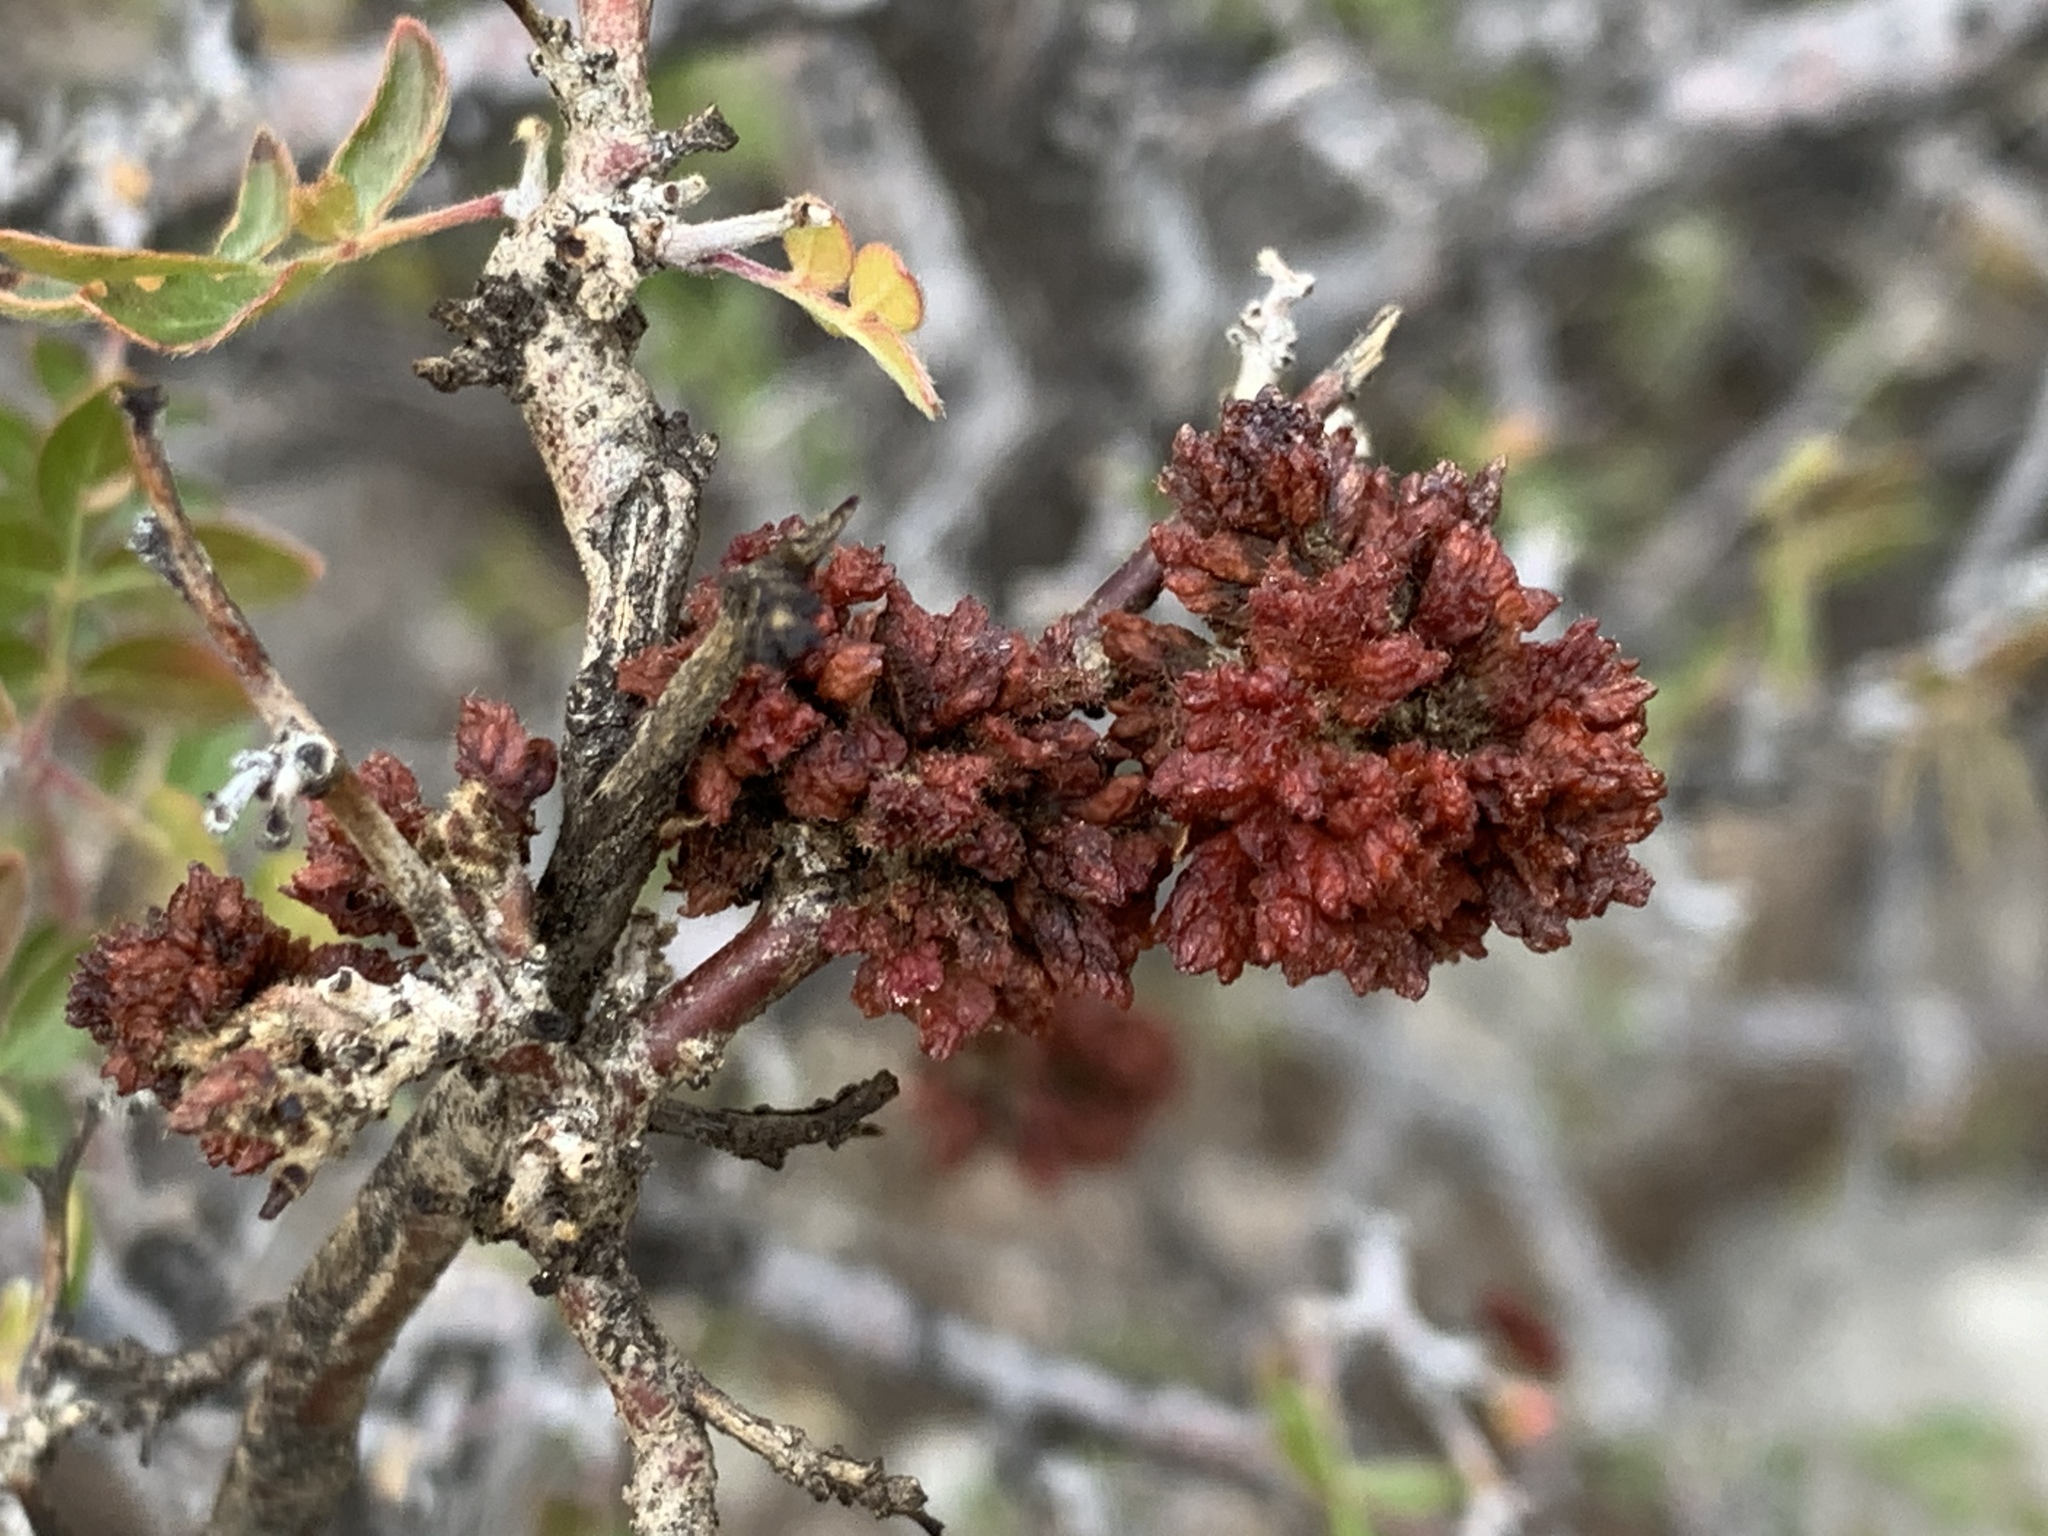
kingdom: Bacteria
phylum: Firmicutes
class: Bacilli
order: Acholeplasmatales
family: Acholeplasmataceae
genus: Phytoplasma
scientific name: Phytoplasma
